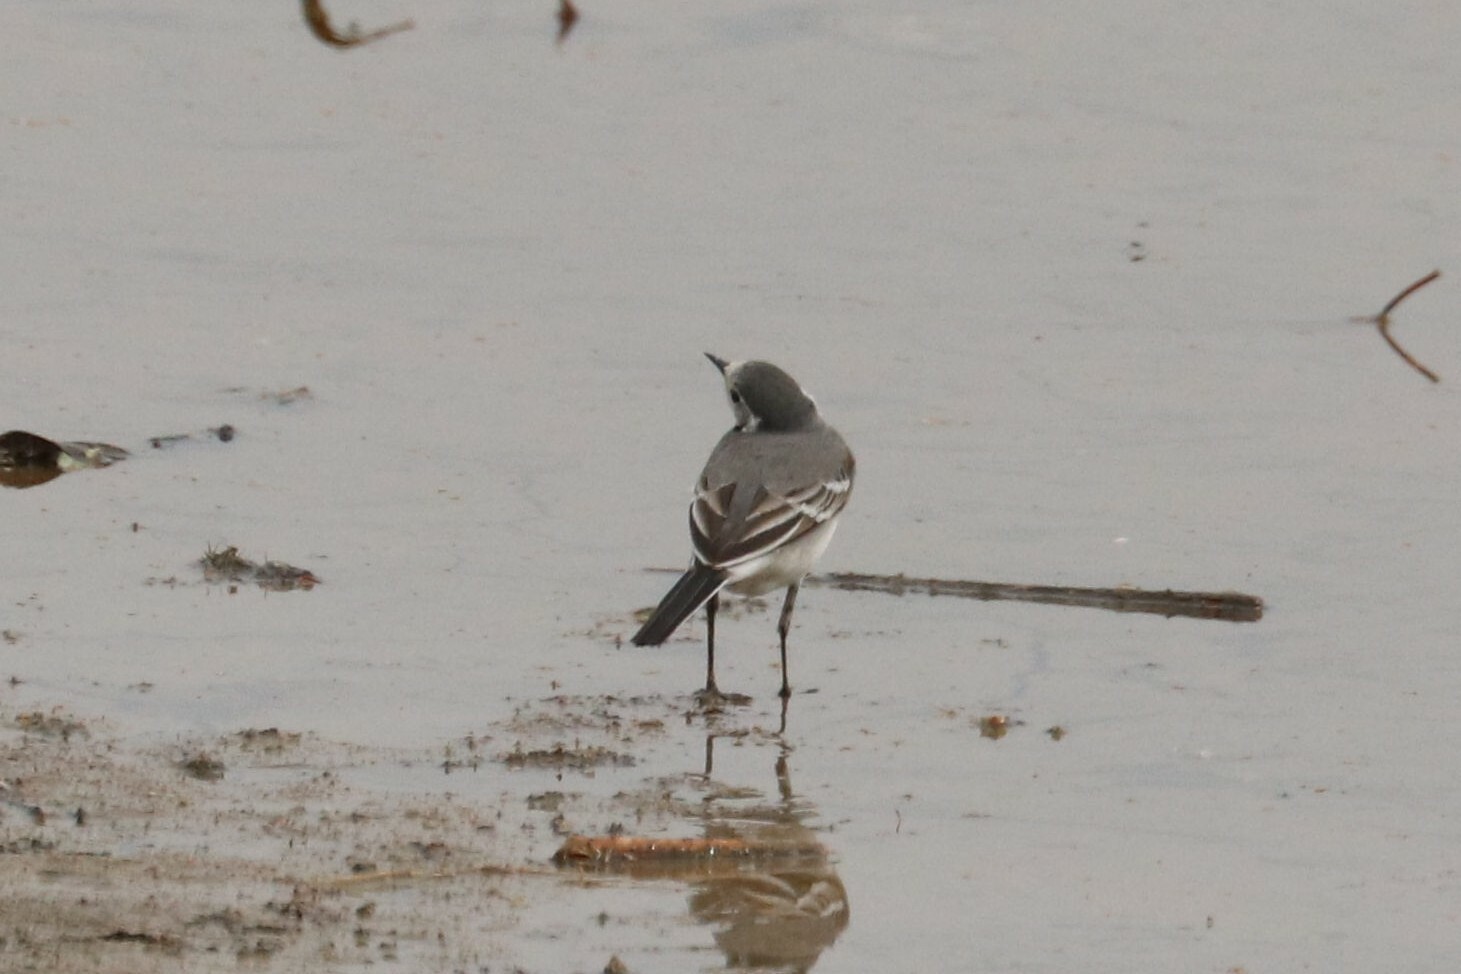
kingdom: Animalia
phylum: Chordata
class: Aves
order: Passeriformes
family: Motacillidae
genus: Motacilla
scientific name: Motacilla alba
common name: White wagtail
